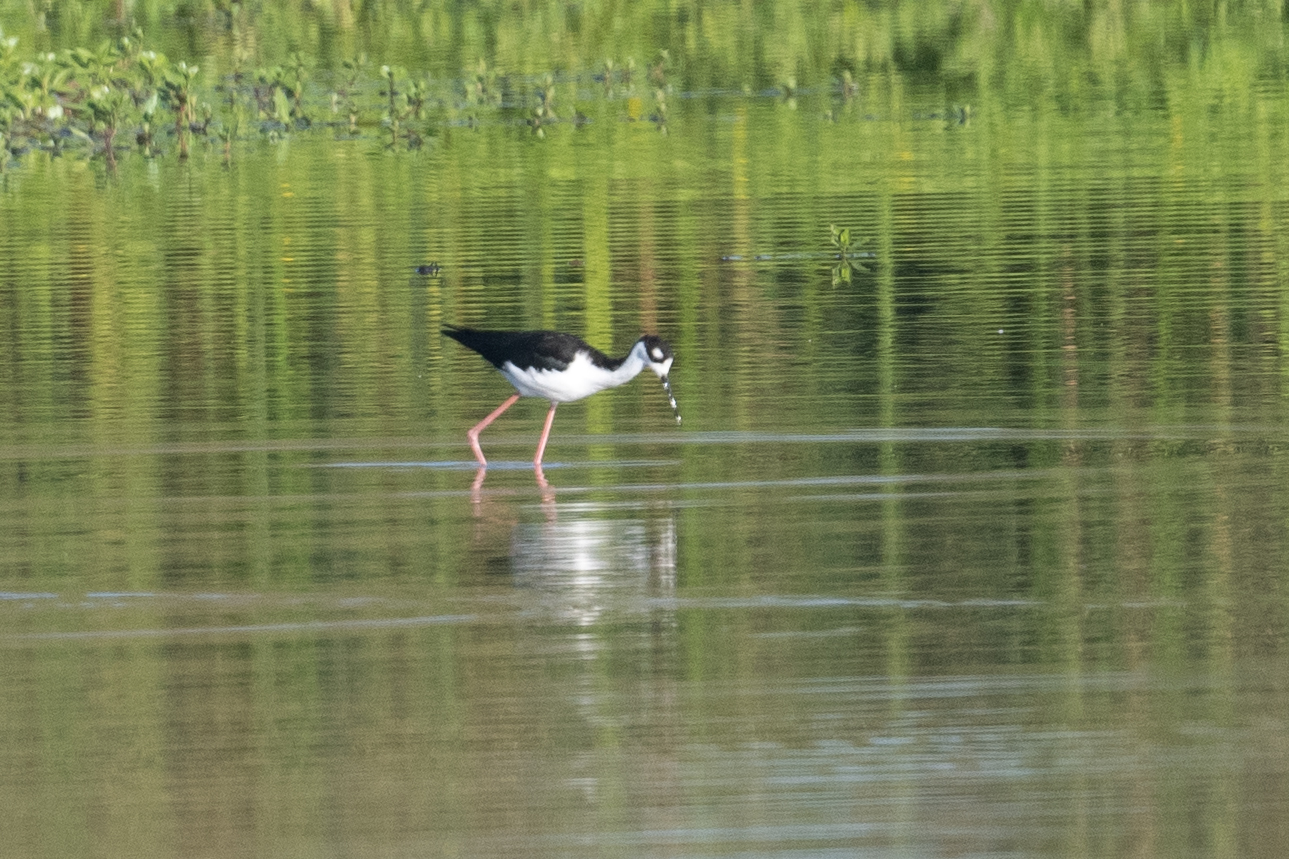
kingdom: Animalia
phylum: Chordata
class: Aves
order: Charadriiformes
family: Recurvirostridae
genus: Himantopus
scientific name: Himantopus mexicanus
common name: Black-necked stilt
